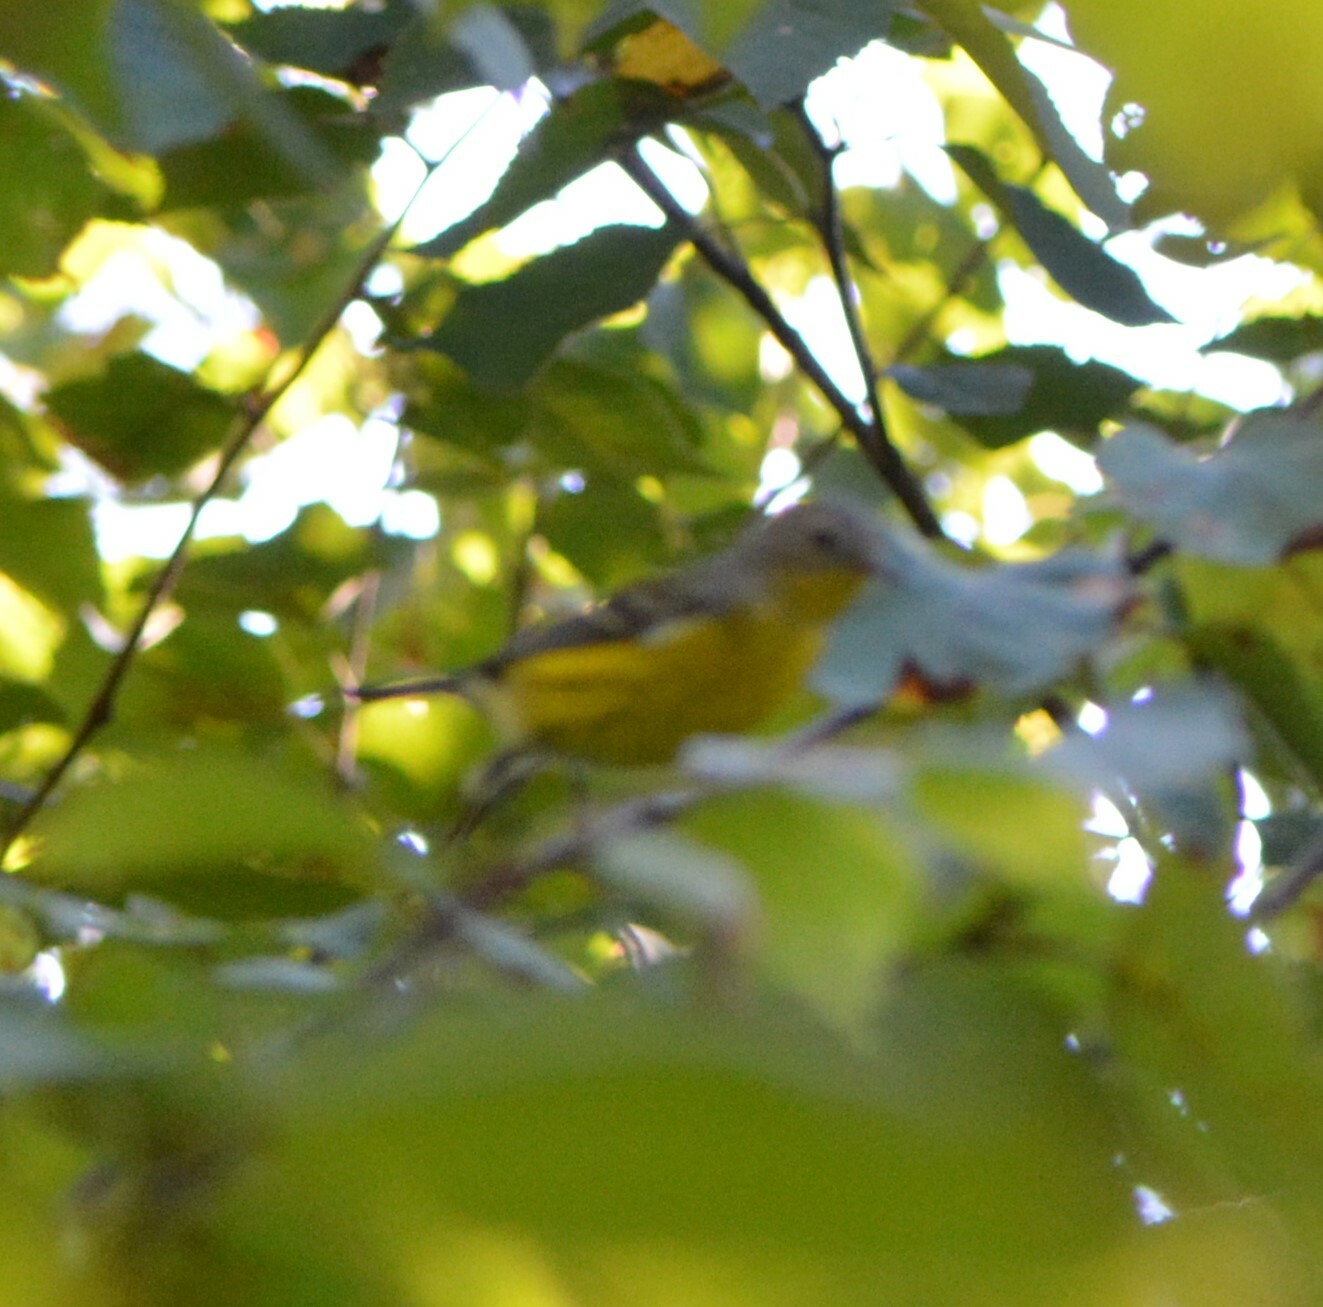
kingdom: Animalia
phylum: Chordata
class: Aves
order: Passeriformes
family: Parulidae
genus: Setophaga
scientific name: Setophaga magnolia
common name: Magnolia warbler
